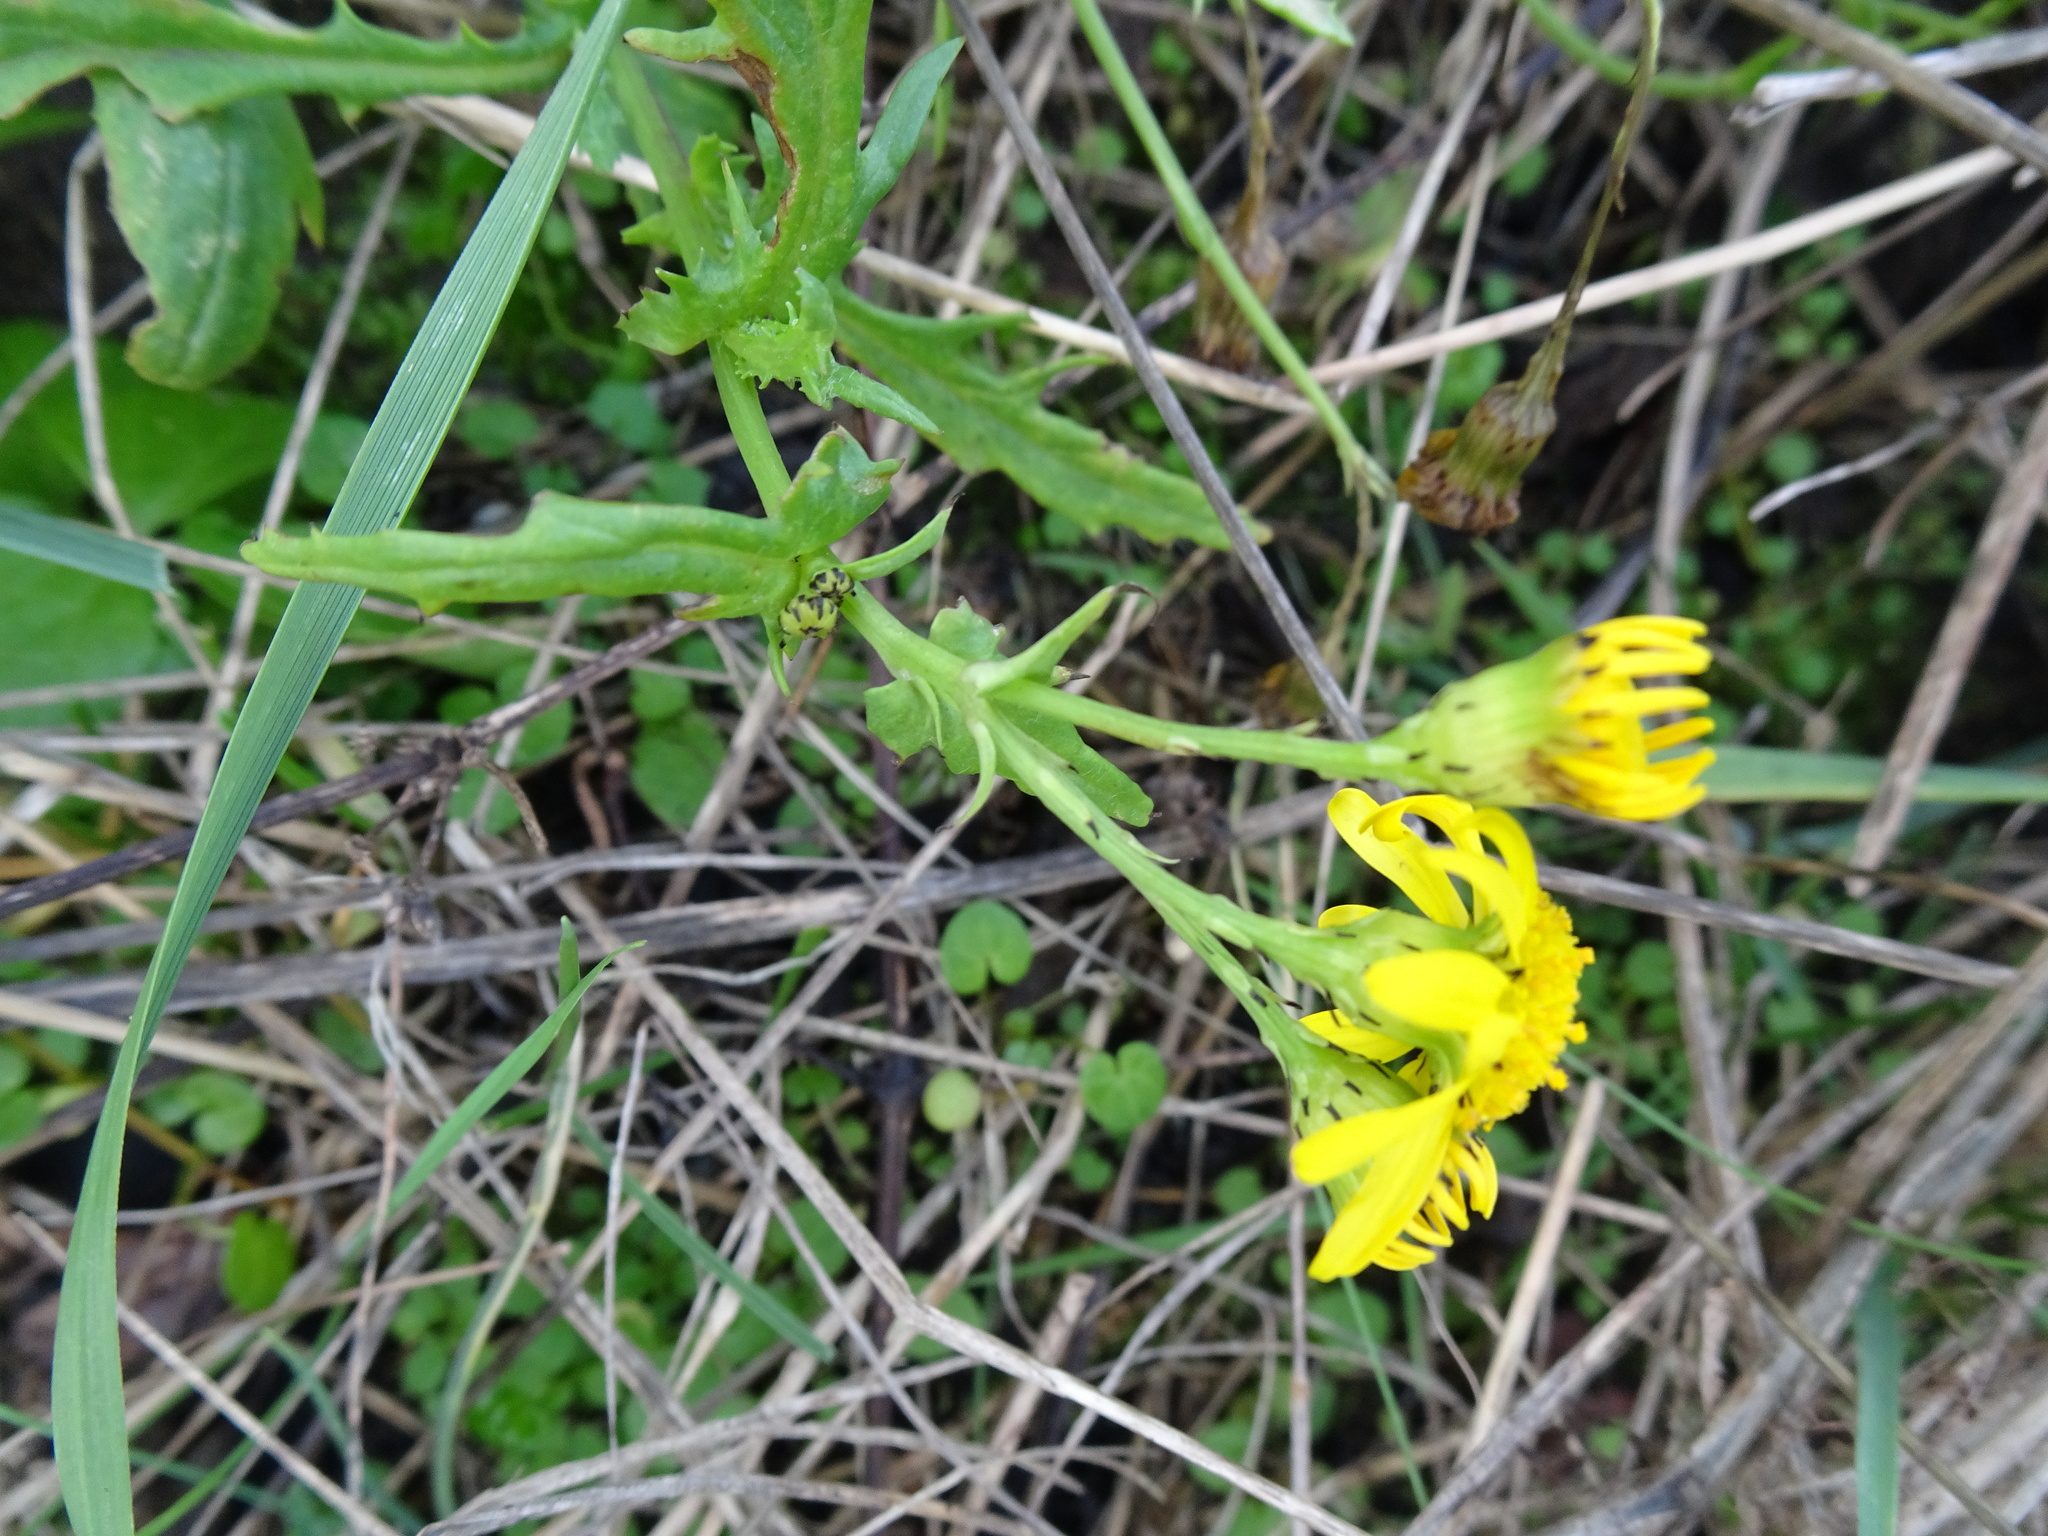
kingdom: Plantae
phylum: Tracheophyta
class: Magnoliopsida
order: Asterales
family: Asteraceae
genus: Senecio
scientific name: Senecio squalidus
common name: Oxford ragwort
